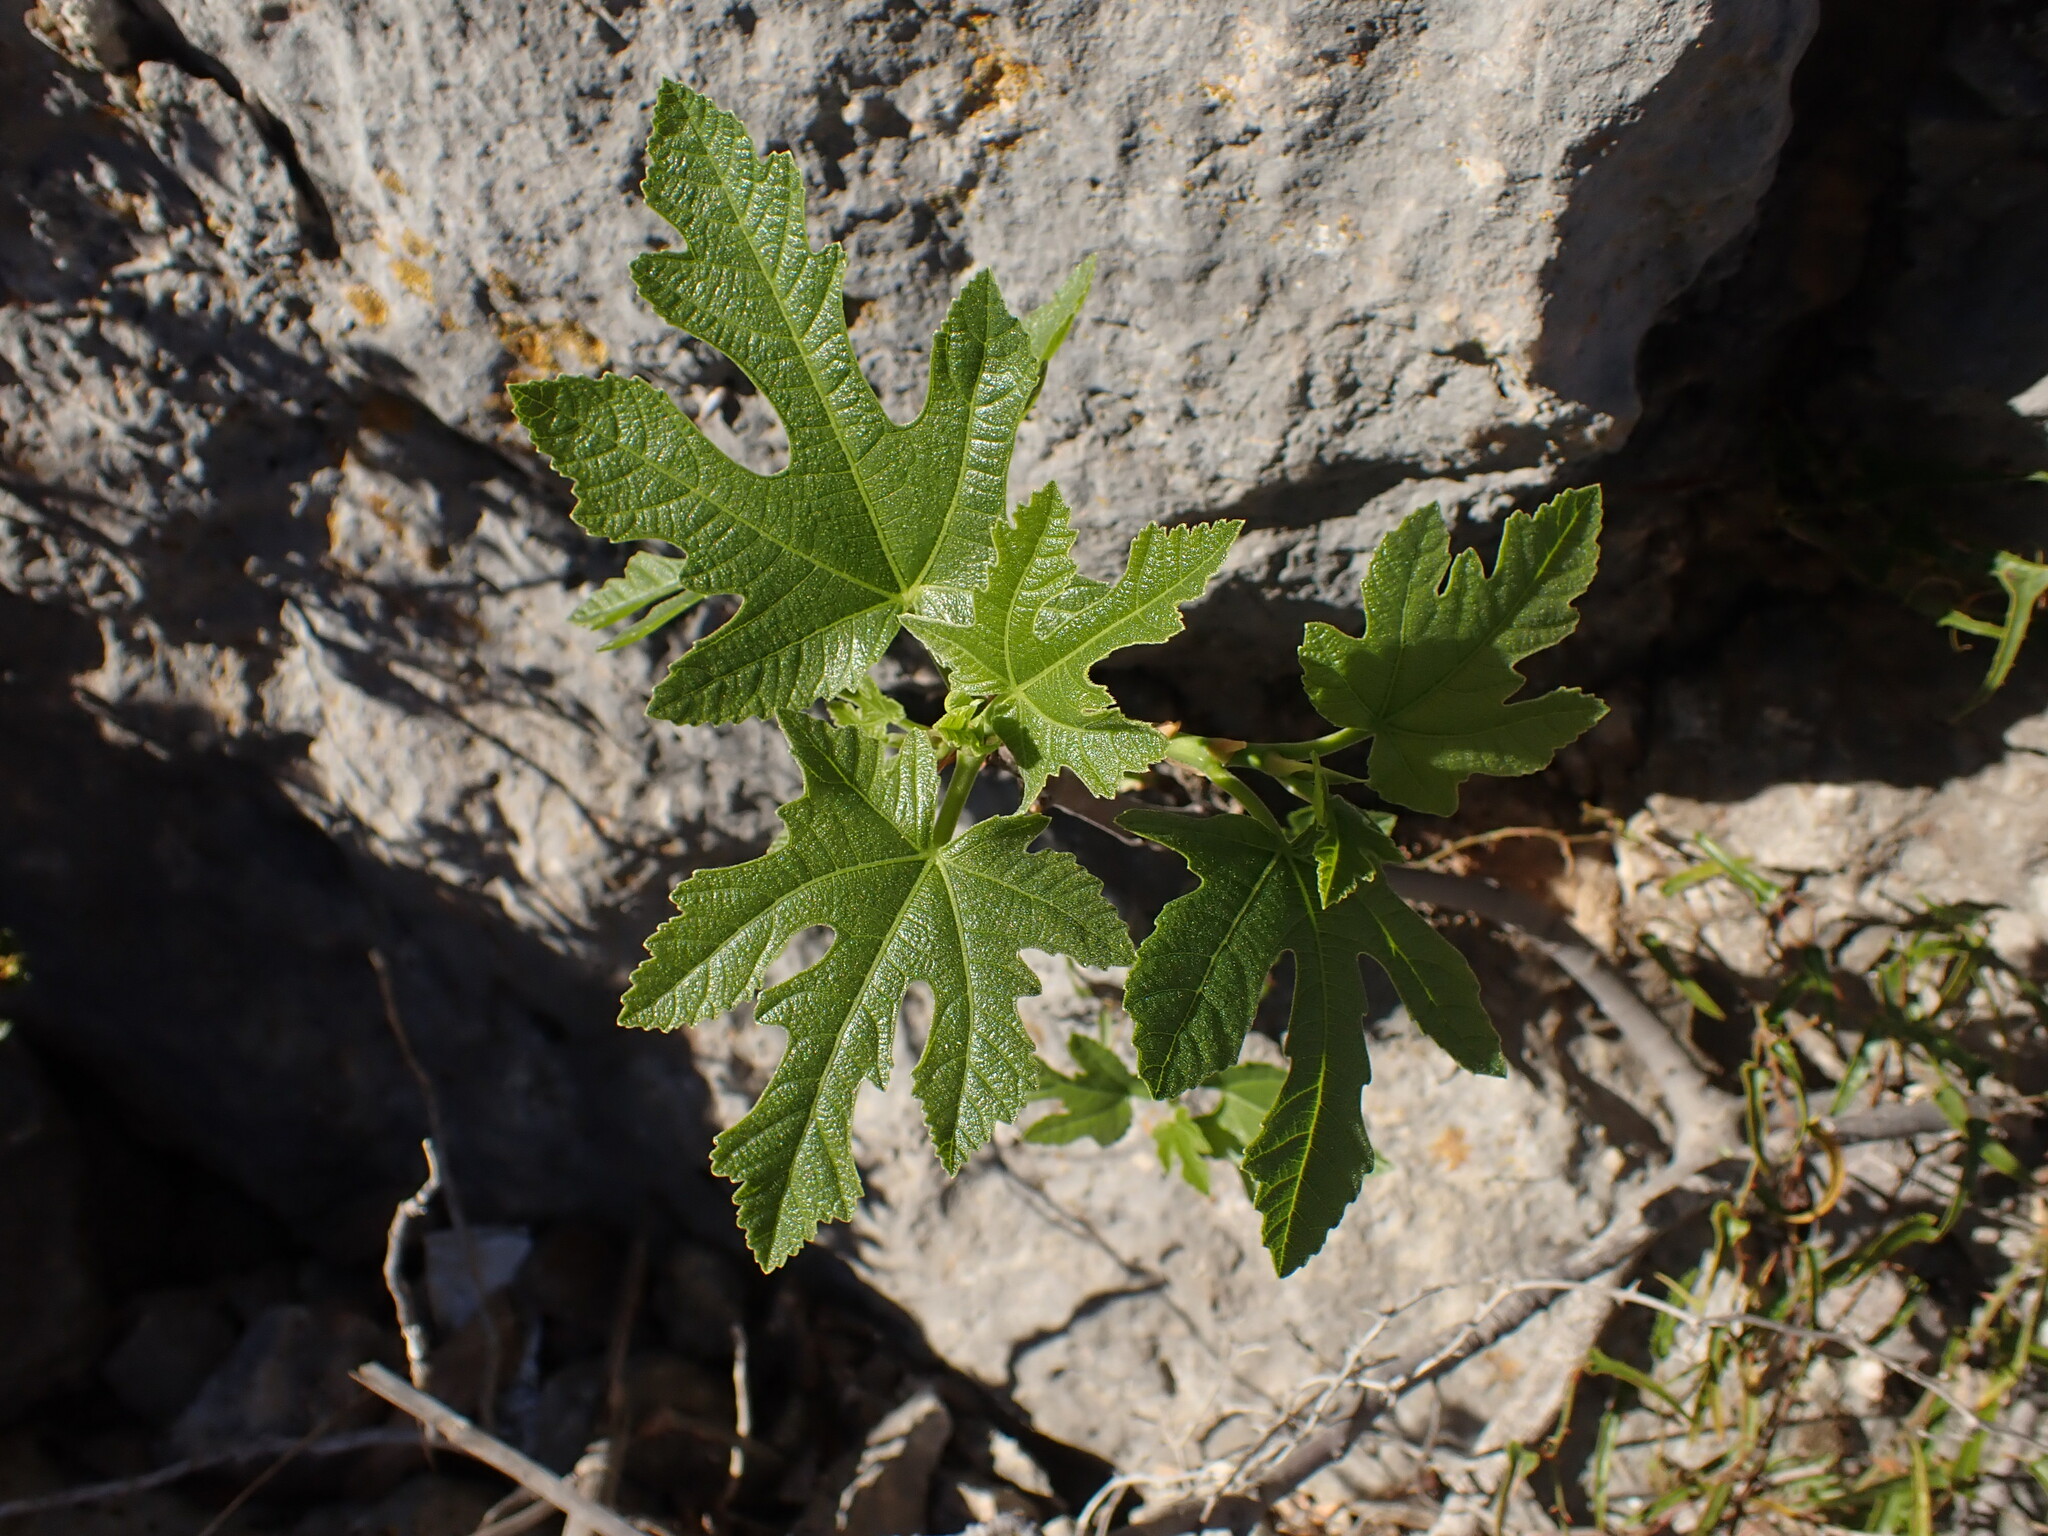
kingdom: Plantae
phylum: Tracheophyta
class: Magnoliopsida
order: Rosales
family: Moraceae
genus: Ficus
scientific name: Ficus carica
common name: Fig
